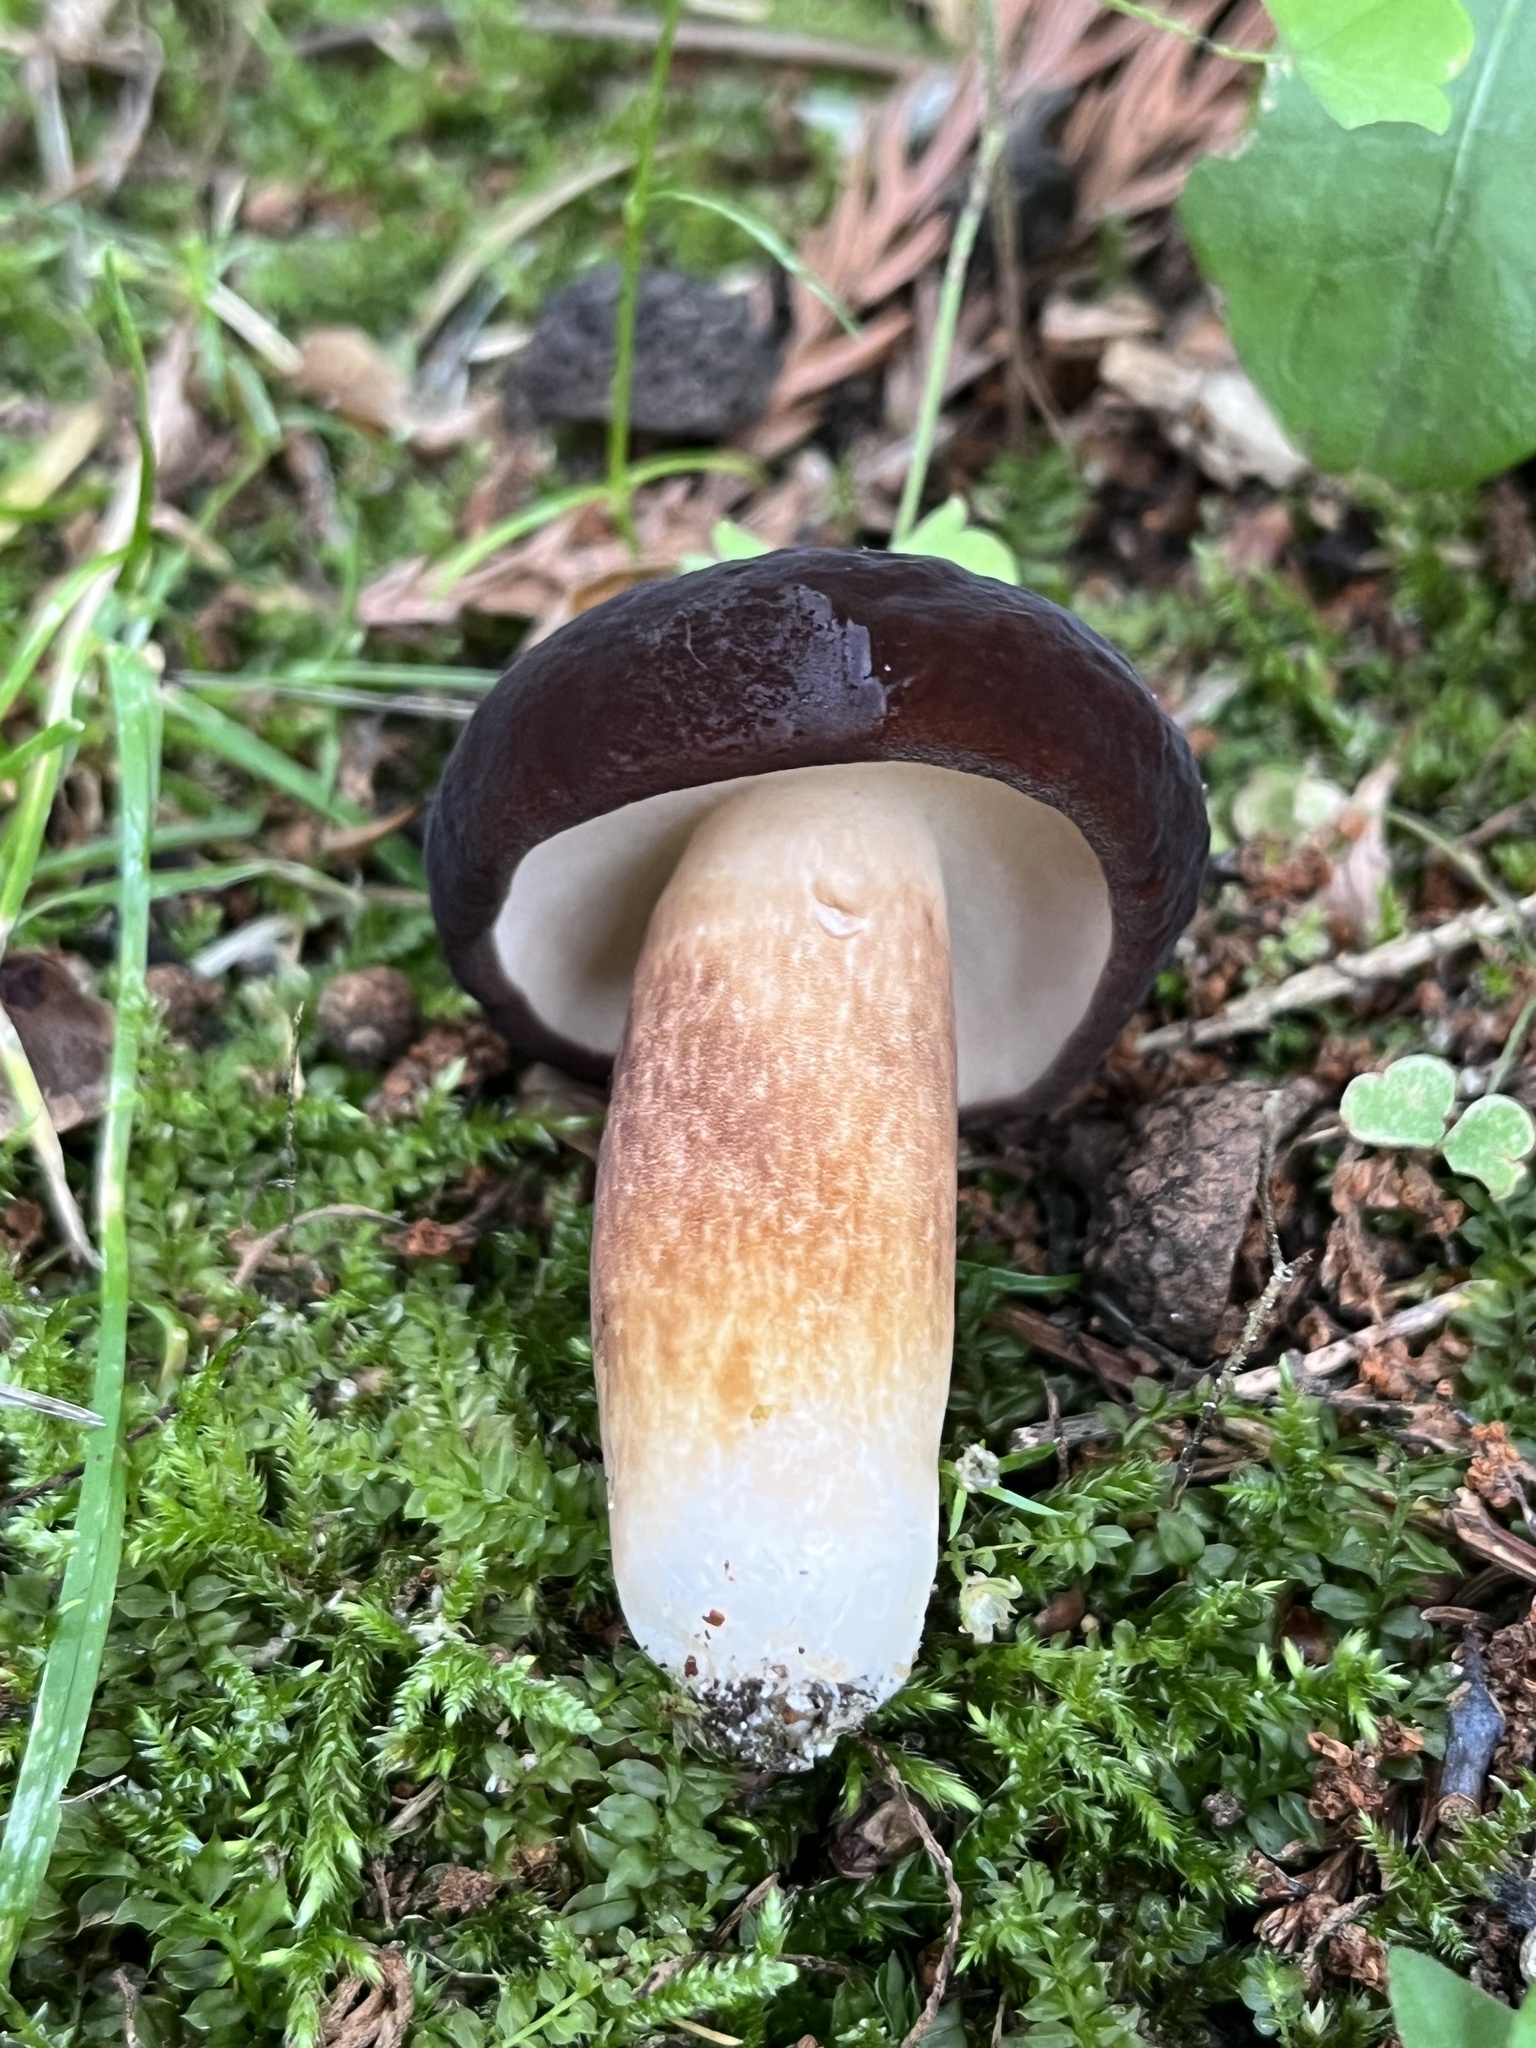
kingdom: Fungi
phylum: Basidiomycota
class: Agaricomycetes
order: Boletales
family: Boletaceae
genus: Tylopilus
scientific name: Tylopilus alboater
